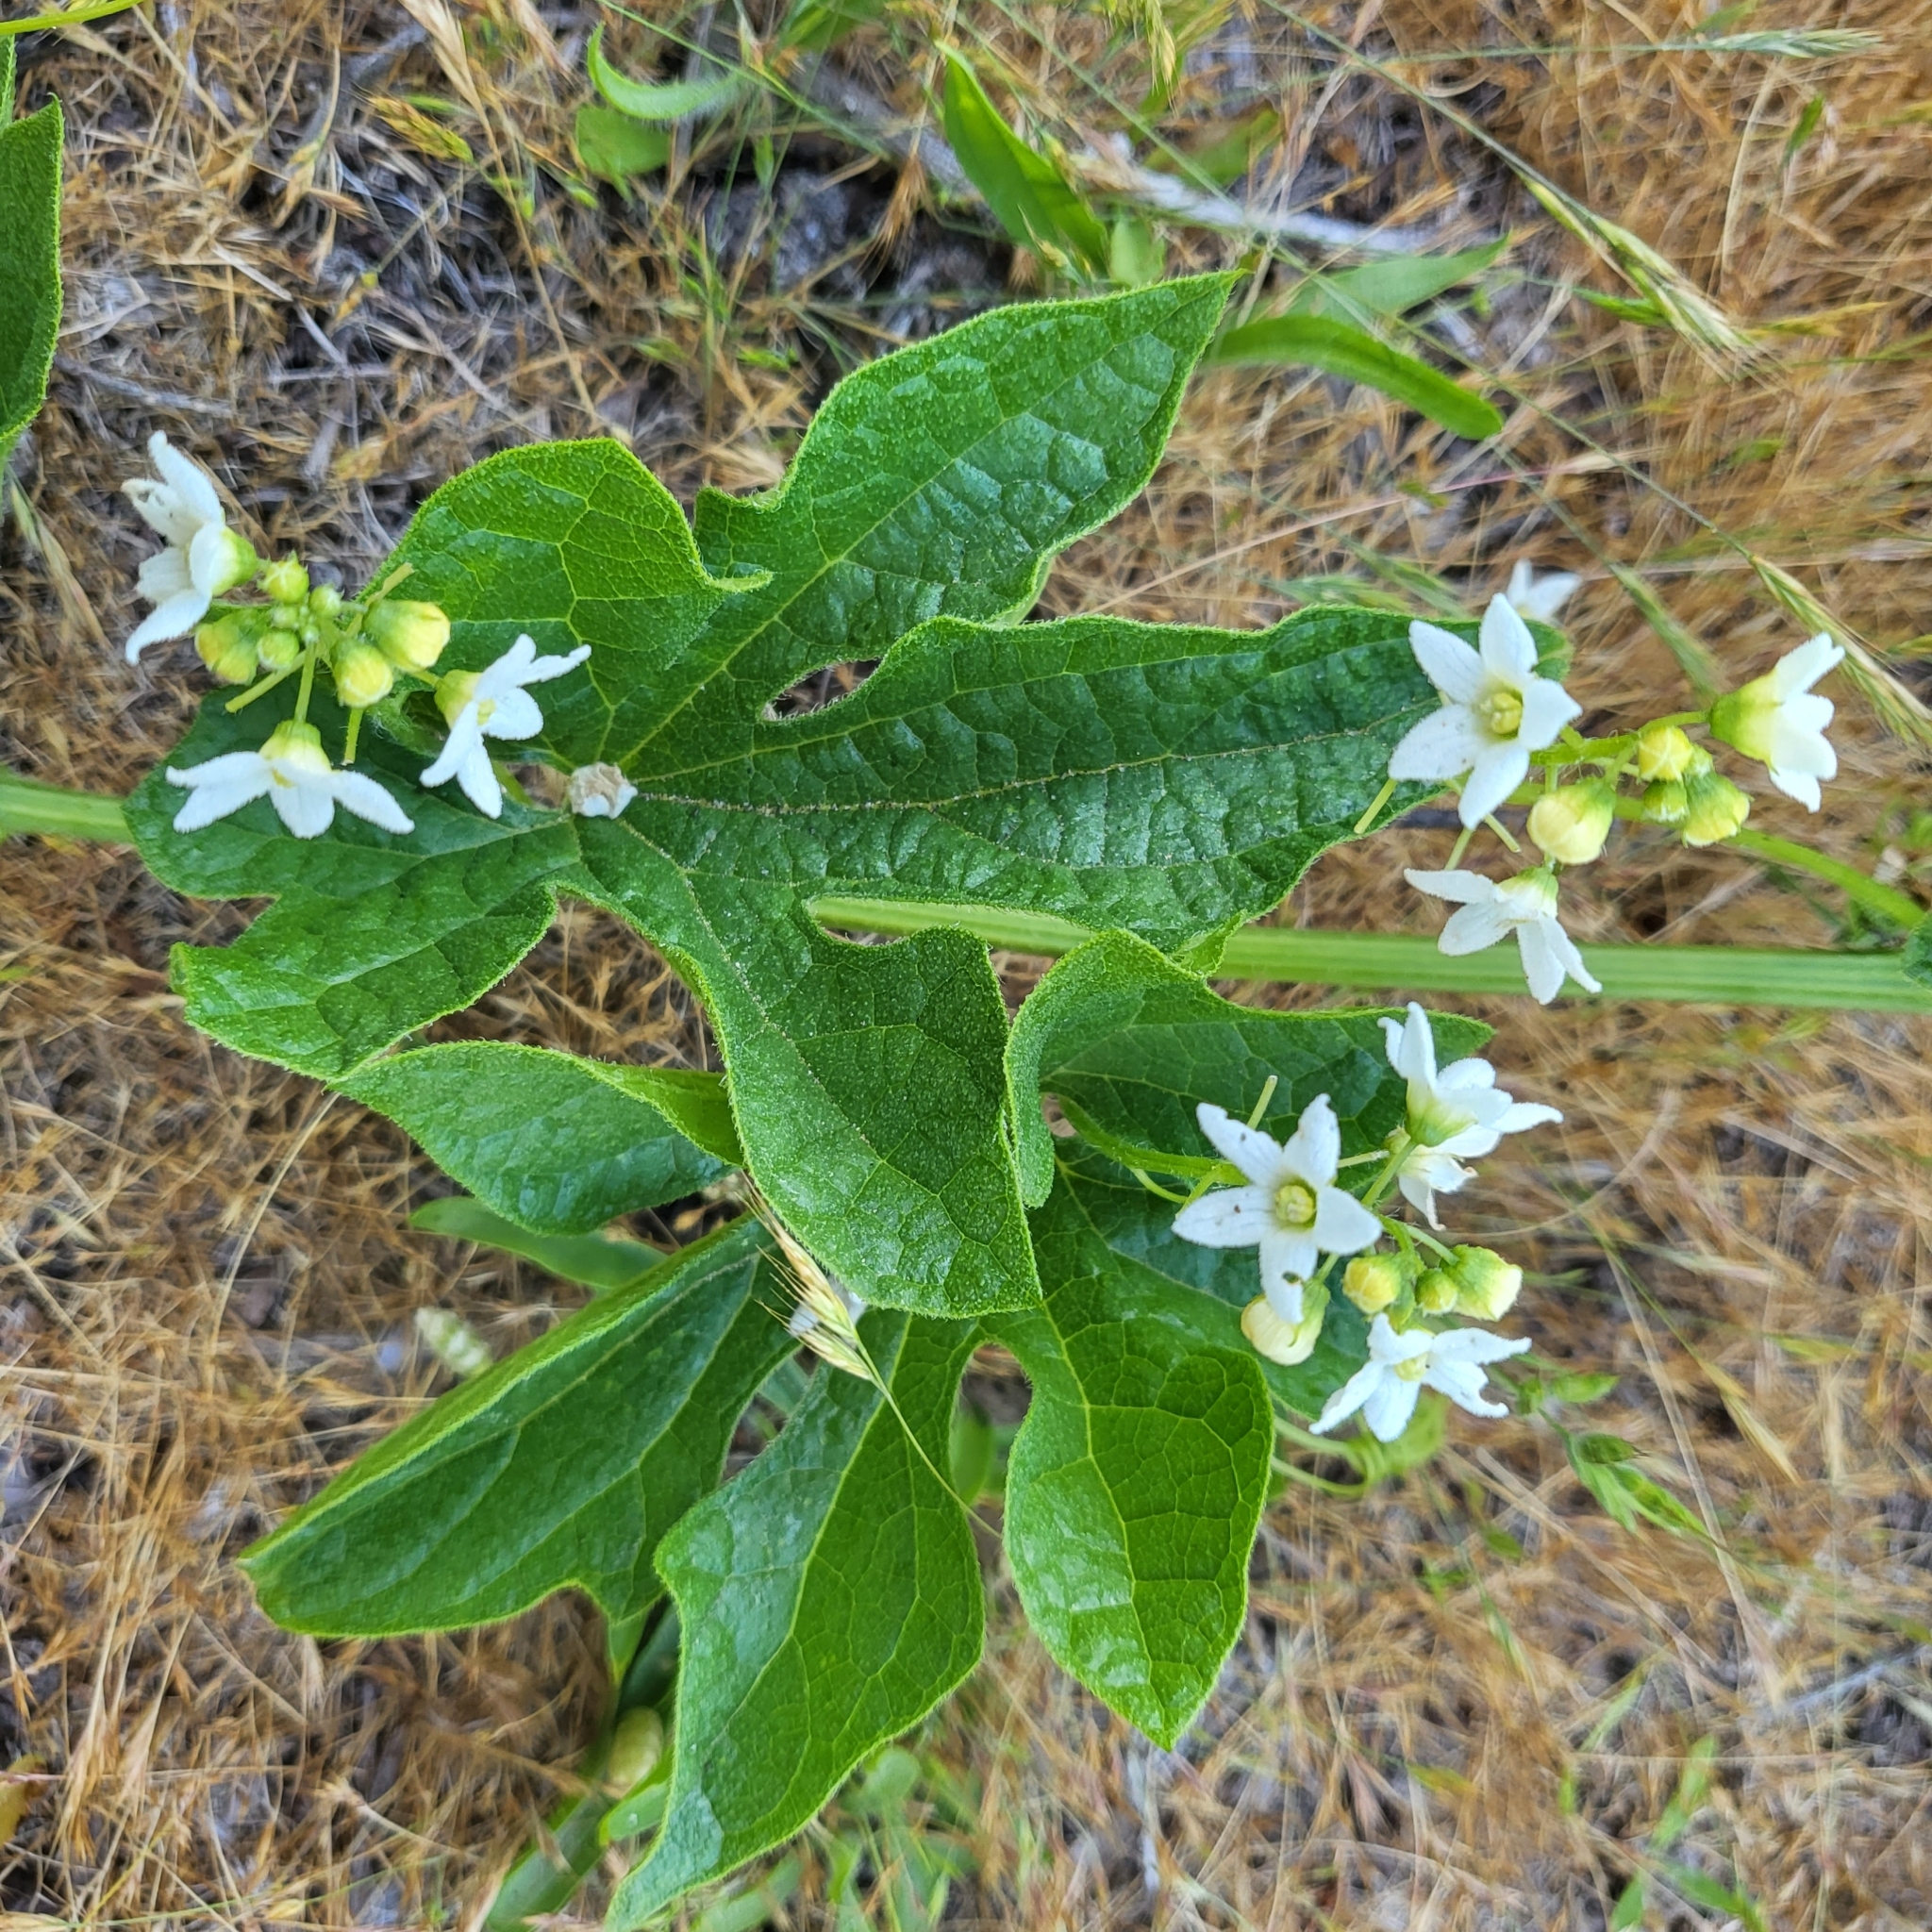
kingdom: Plantae
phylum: Tracheophyta
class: Magnoliopsida
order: Cucurbitales
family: Cucurbitaceae
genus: Marah
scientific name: Marah oregana
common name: Coastal manroot
